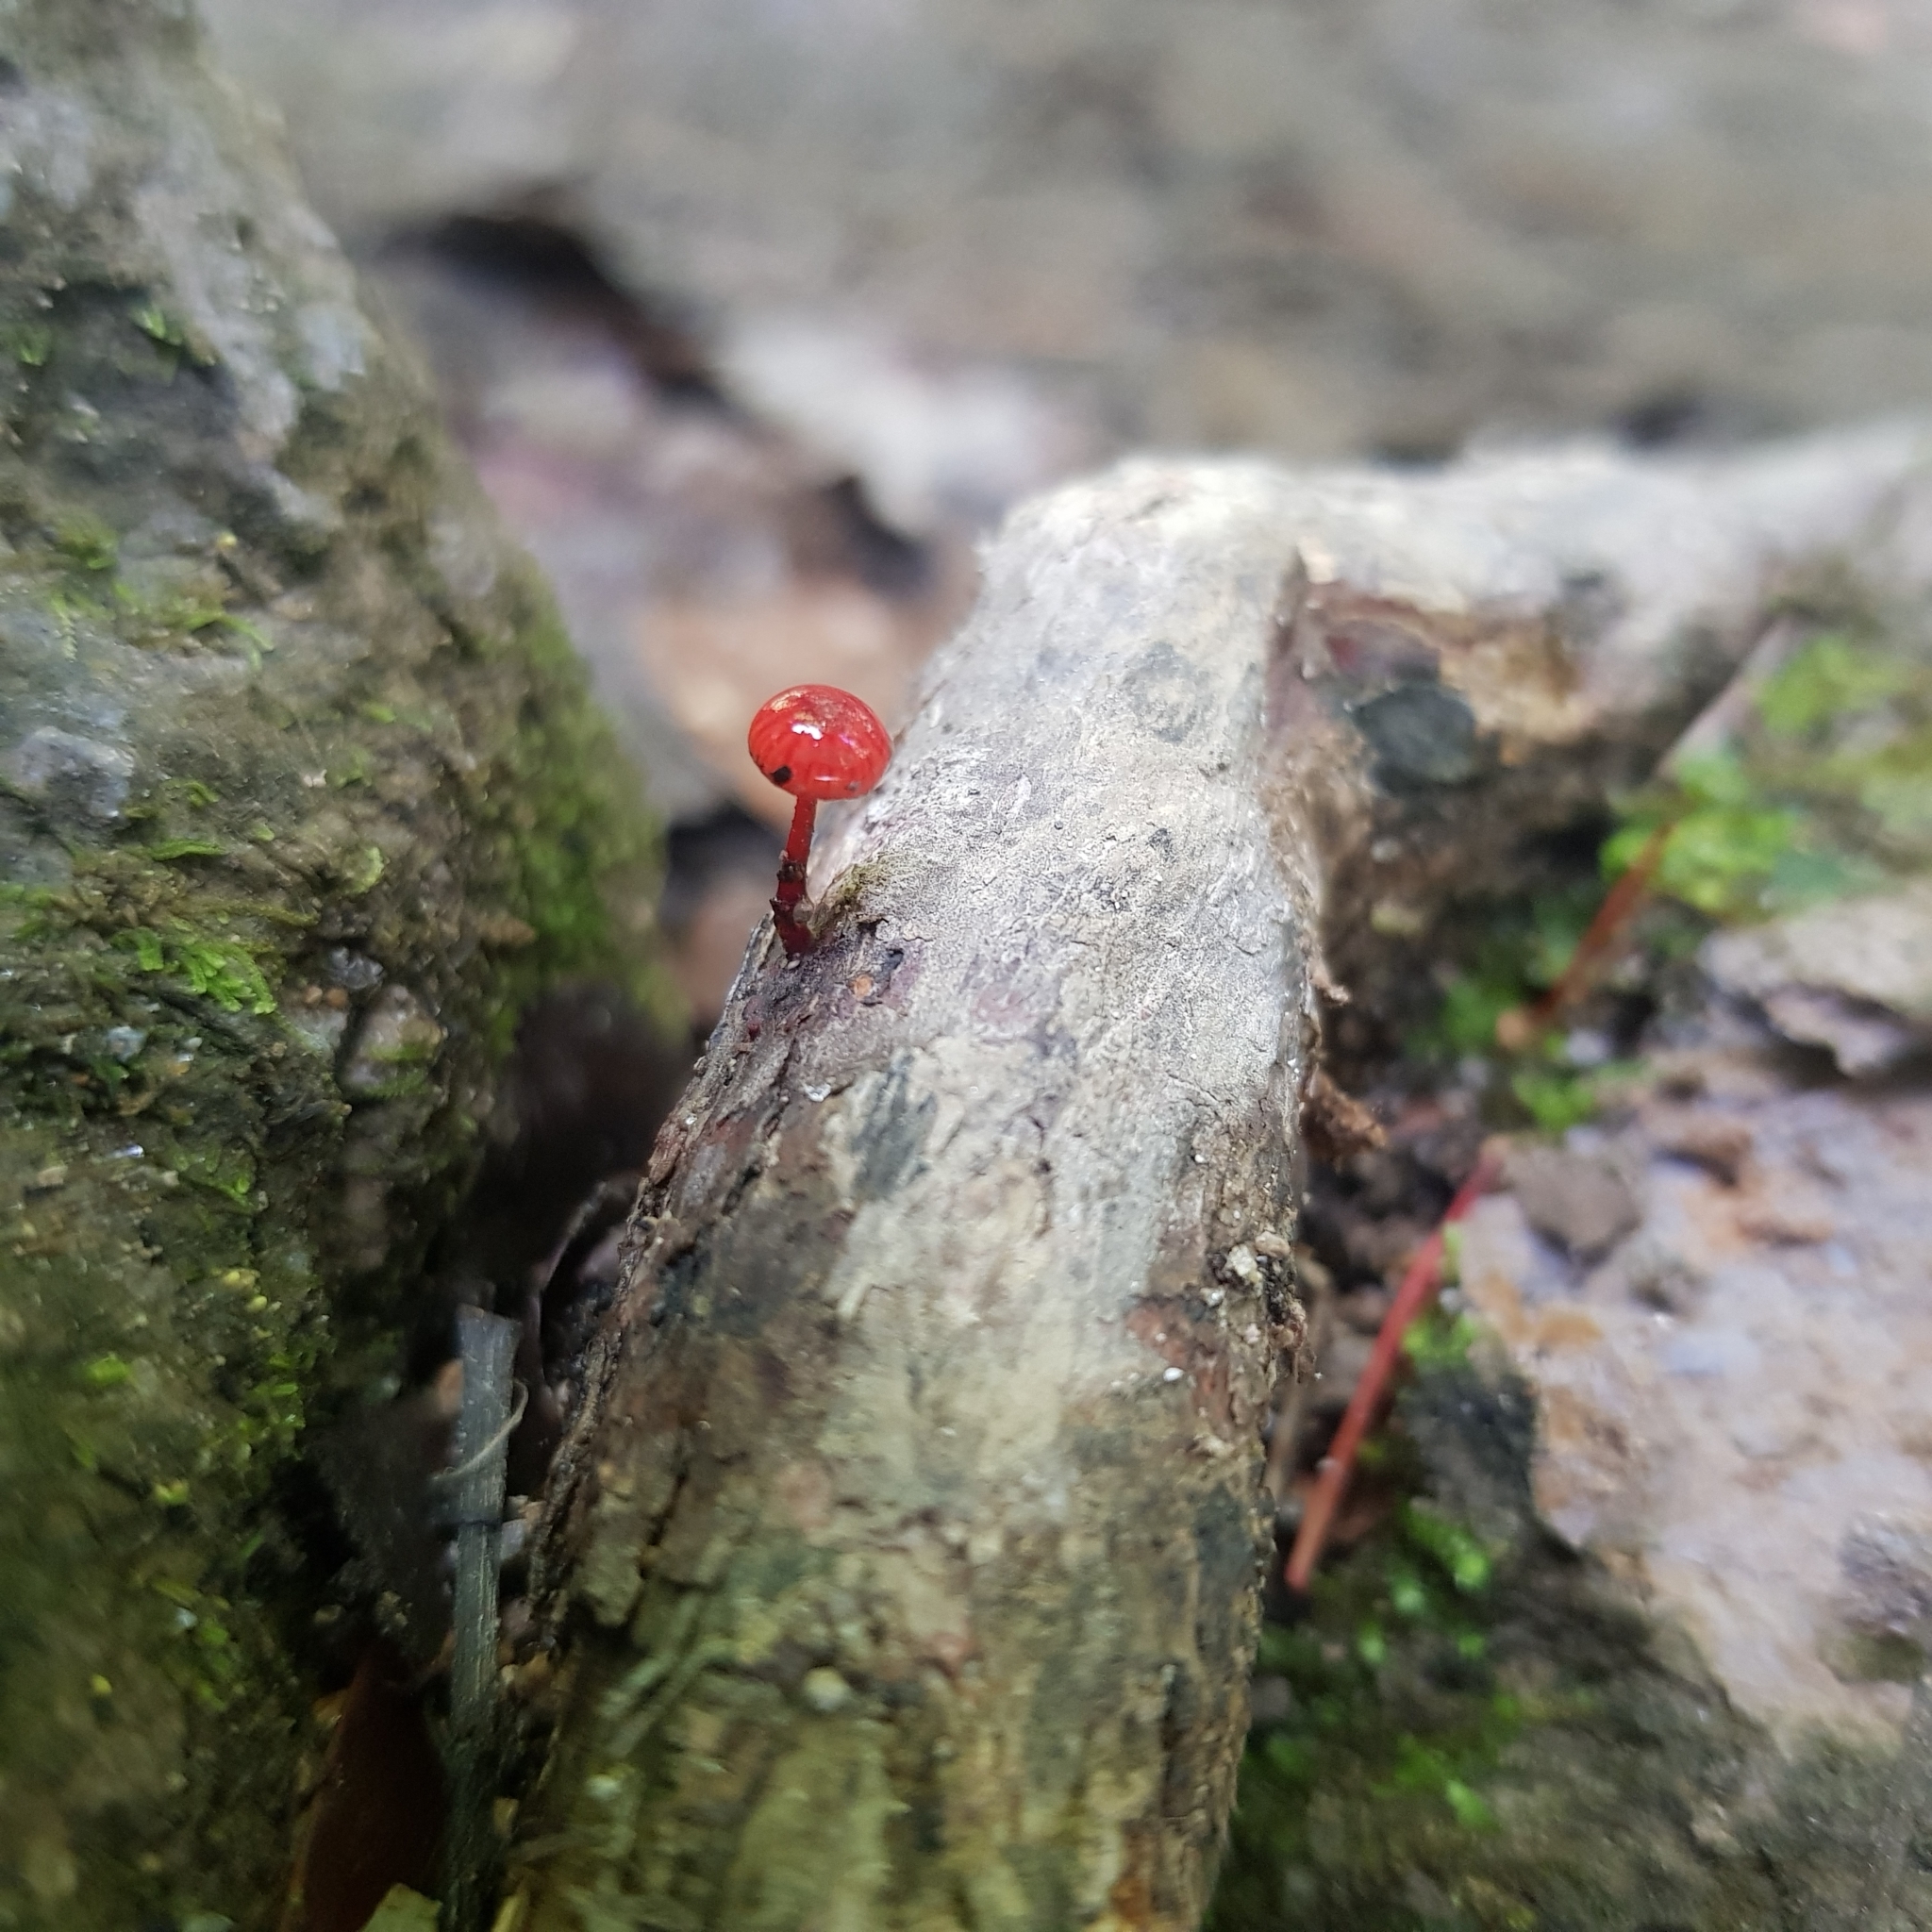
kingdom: Fungi
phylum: Basidiomycota
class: Agaricomycetes
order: Agaricales
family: Mycenaceae
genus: Cruentomycena
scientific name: Cruentomycena viscidocruenta
